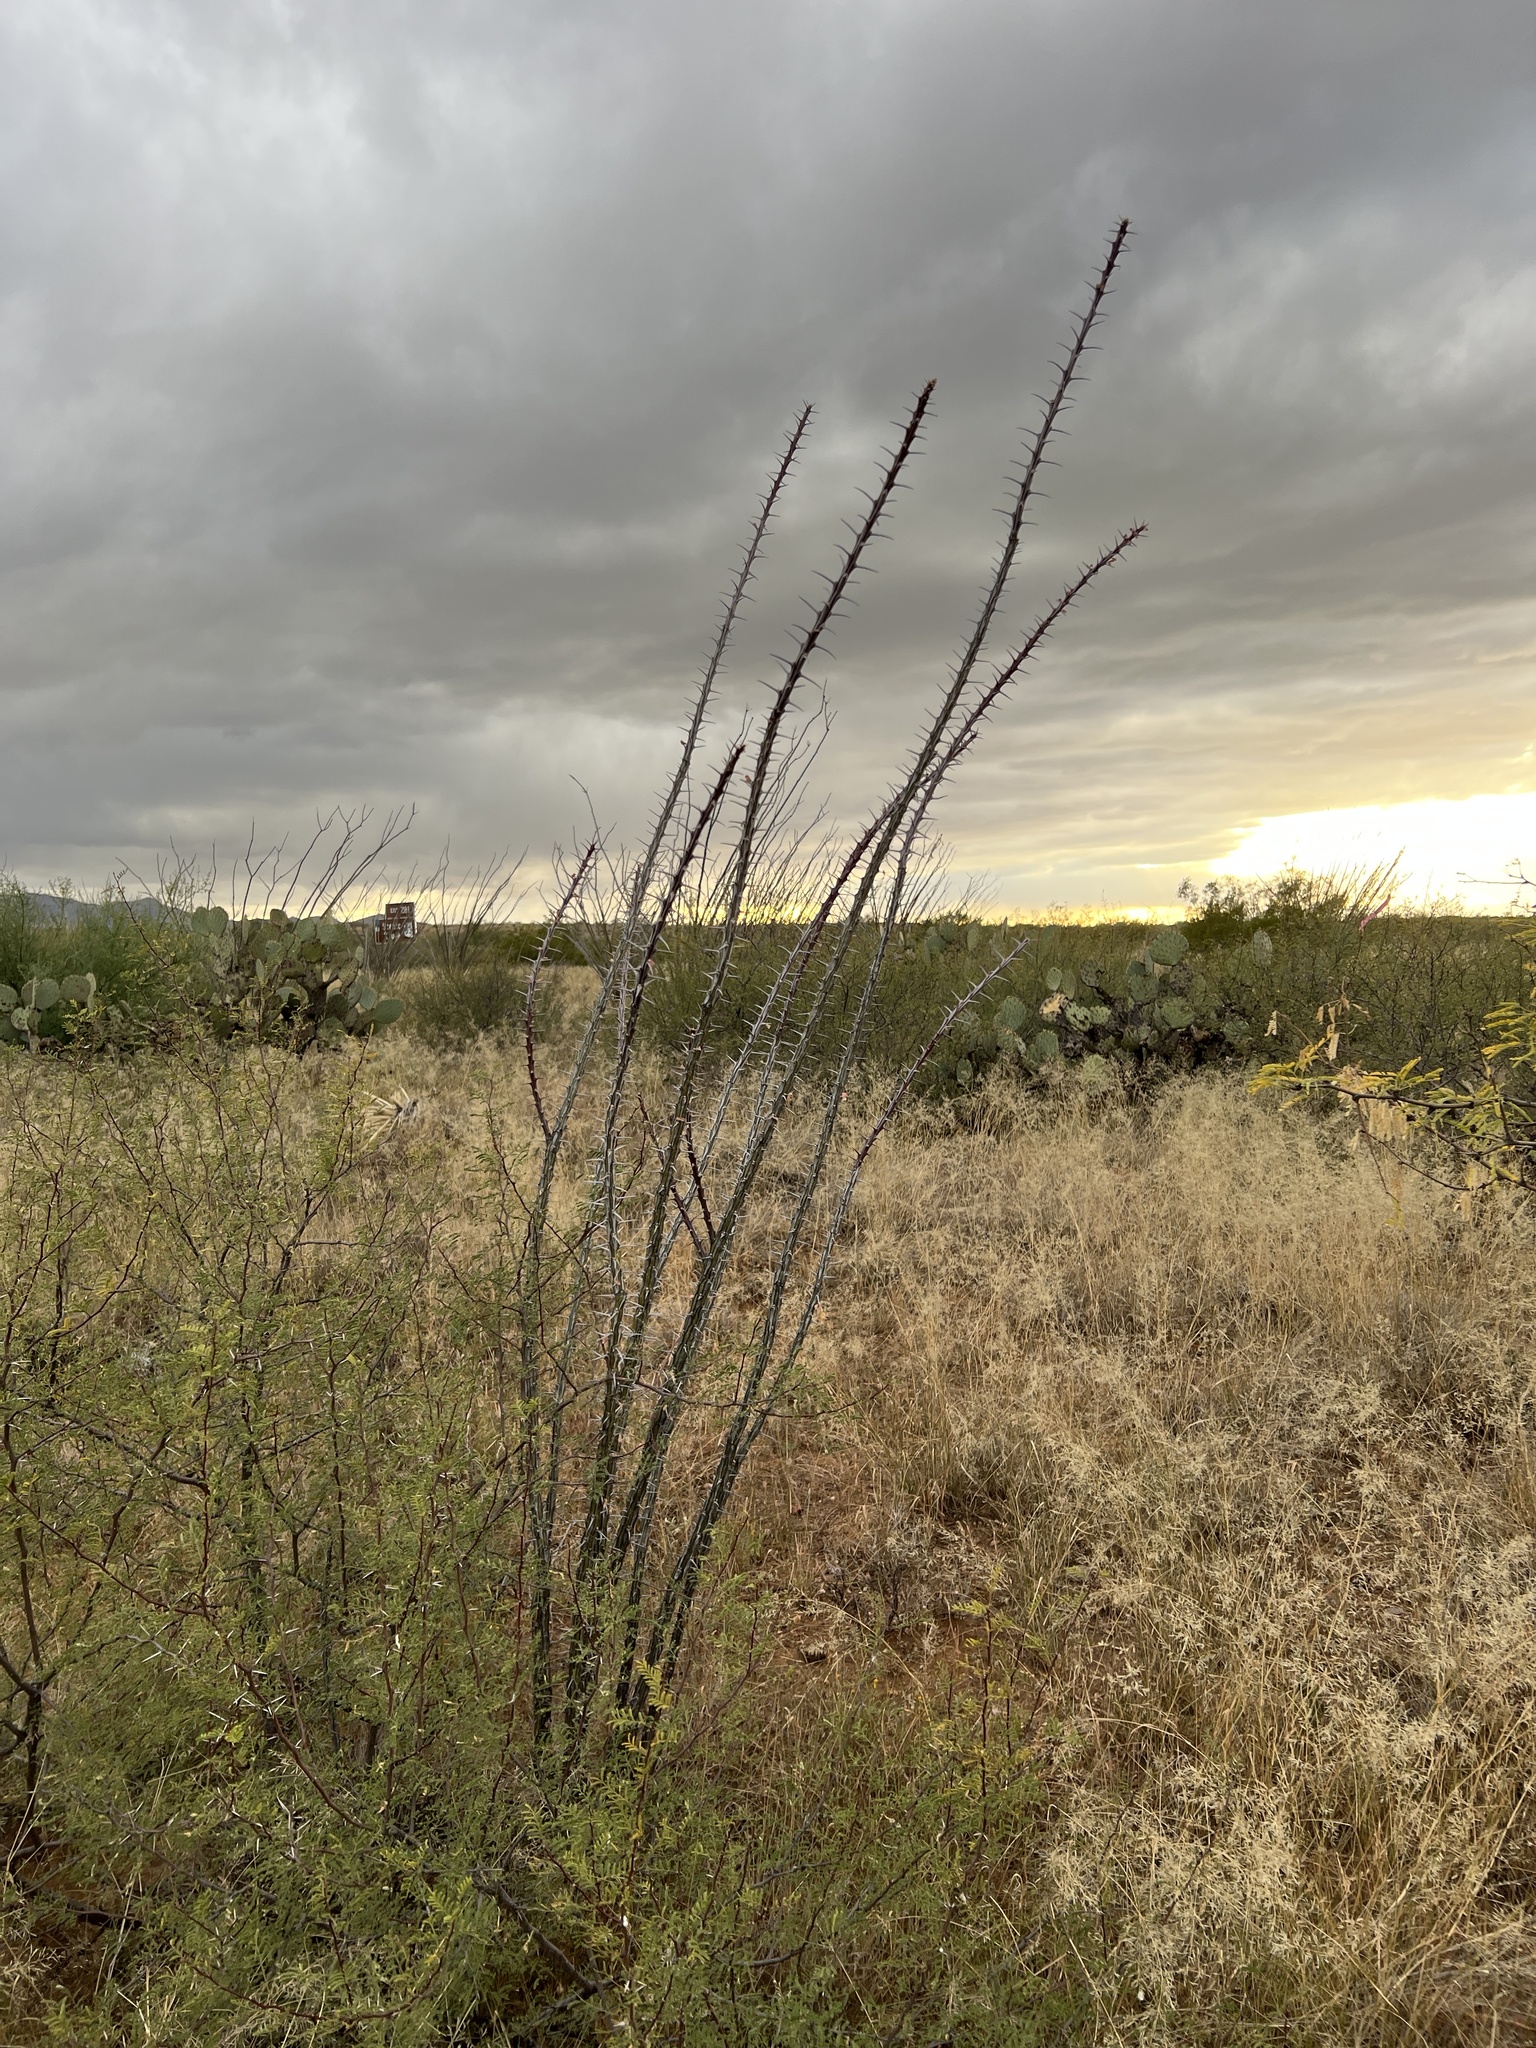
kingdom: Plantae
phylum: Tracheophyta
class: Magnoliopsida
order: Ericales
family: Fouquieriaceae
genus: Fouquieria
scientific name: Fouquieria splendens
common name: Vine-cactus
